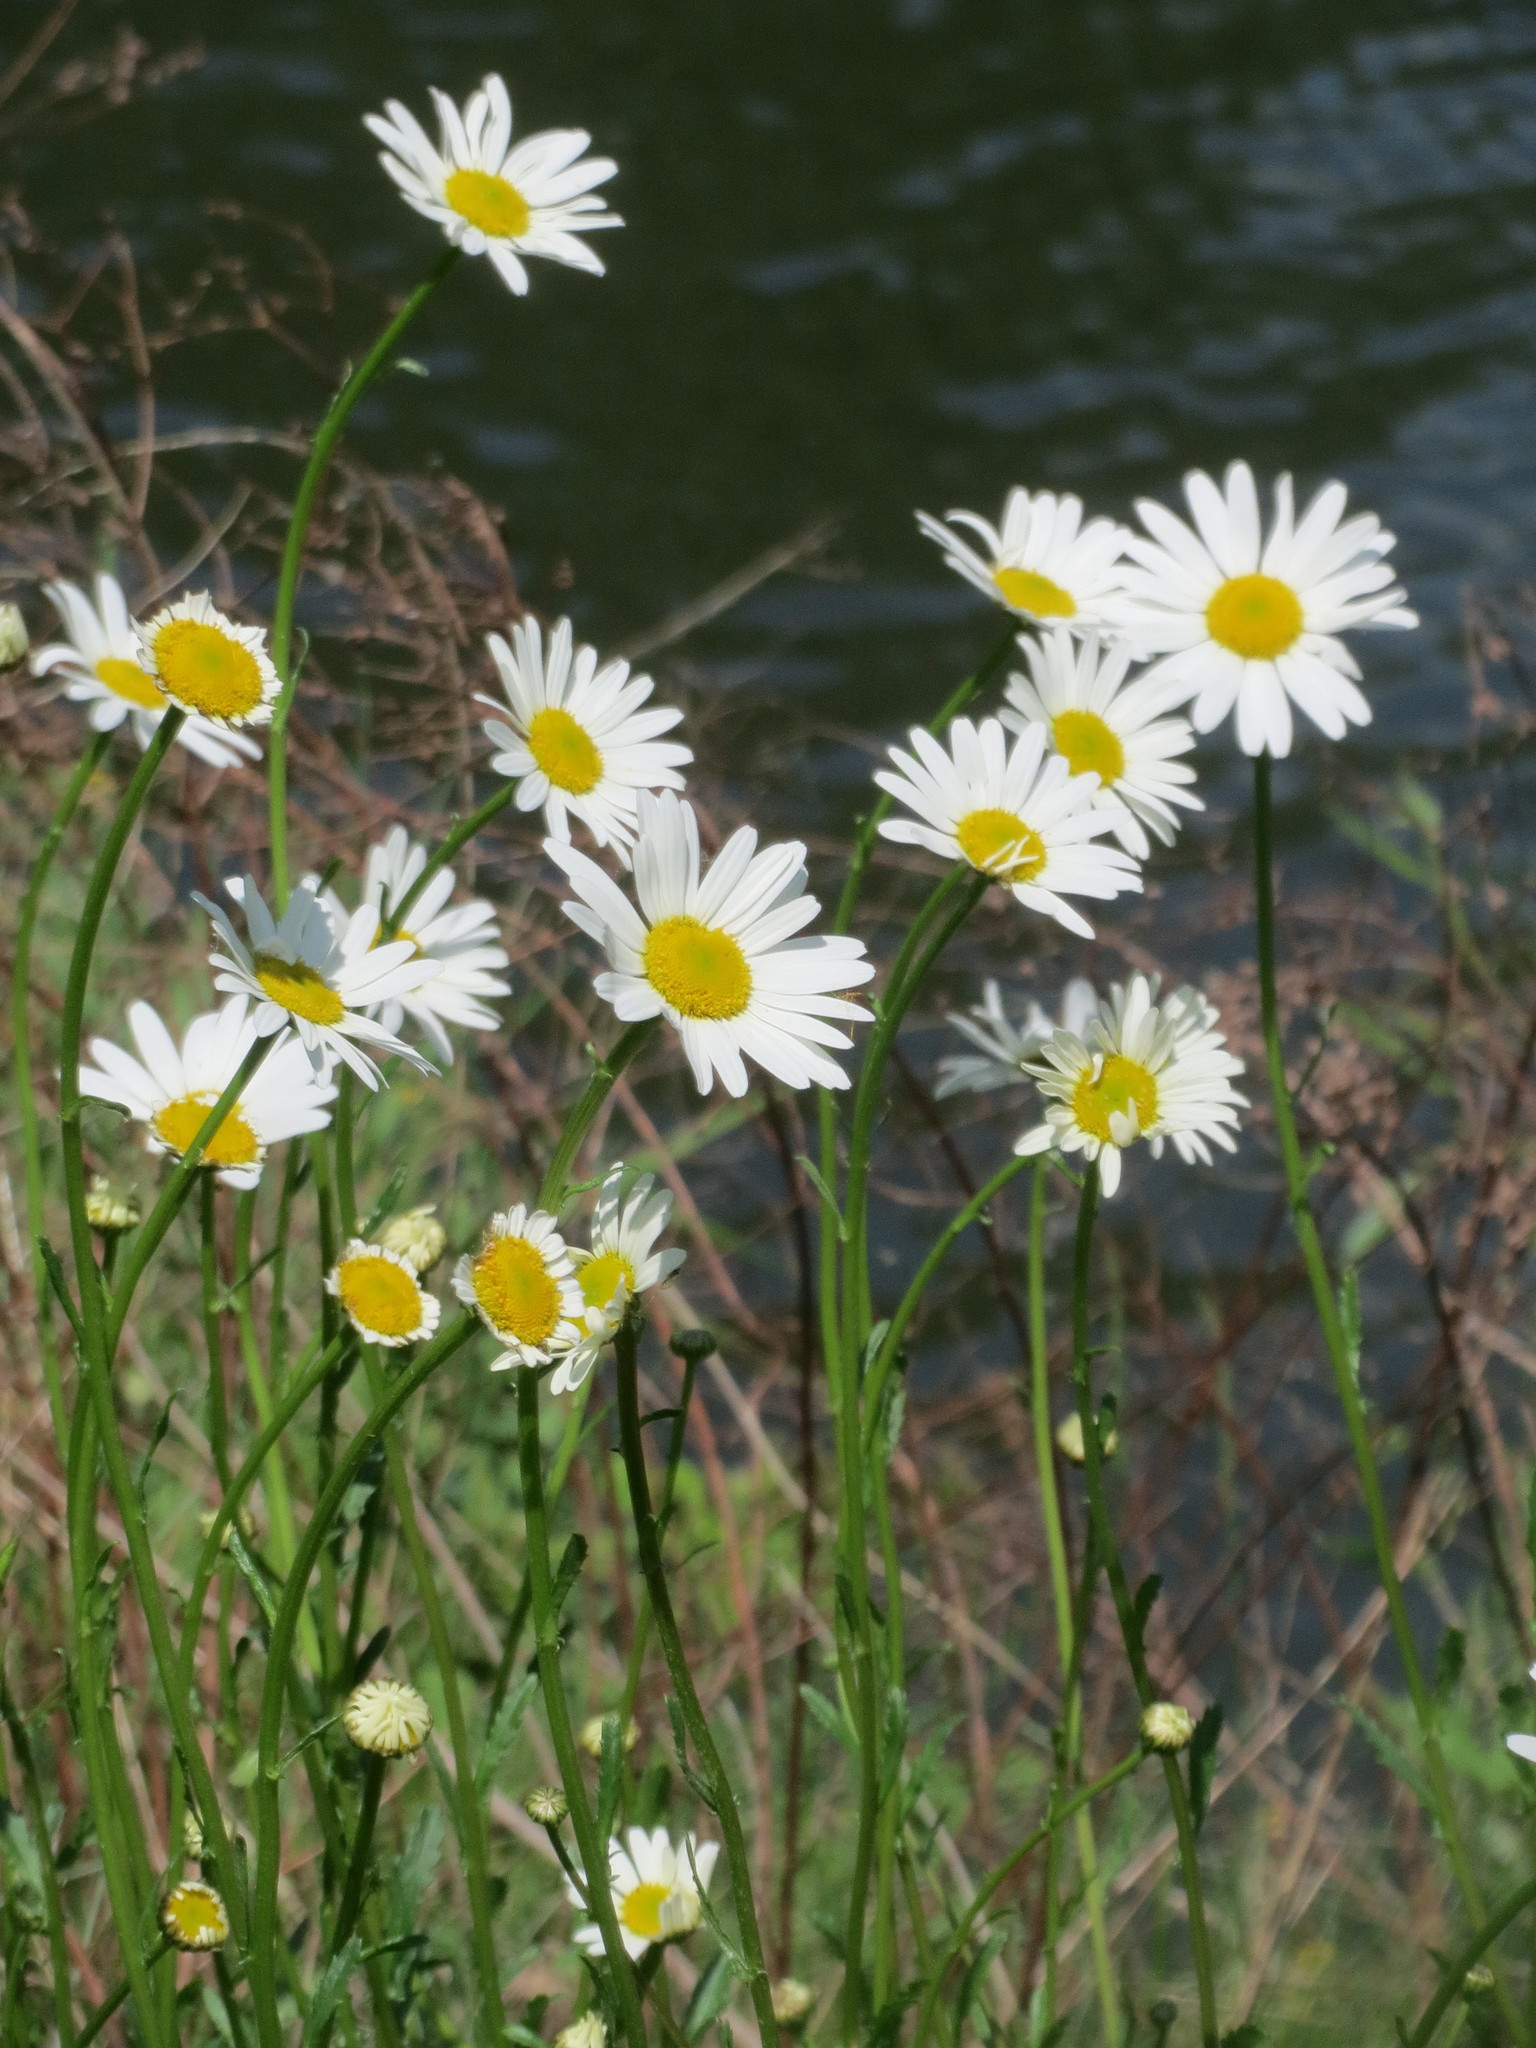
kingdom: Plantae
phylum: Tracheophyta
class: Magnoliopsida
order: Asterales
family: Asteraceae
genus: Leucanthemum
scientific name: Leucanthemum vulgare
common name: Oxeye daisy
